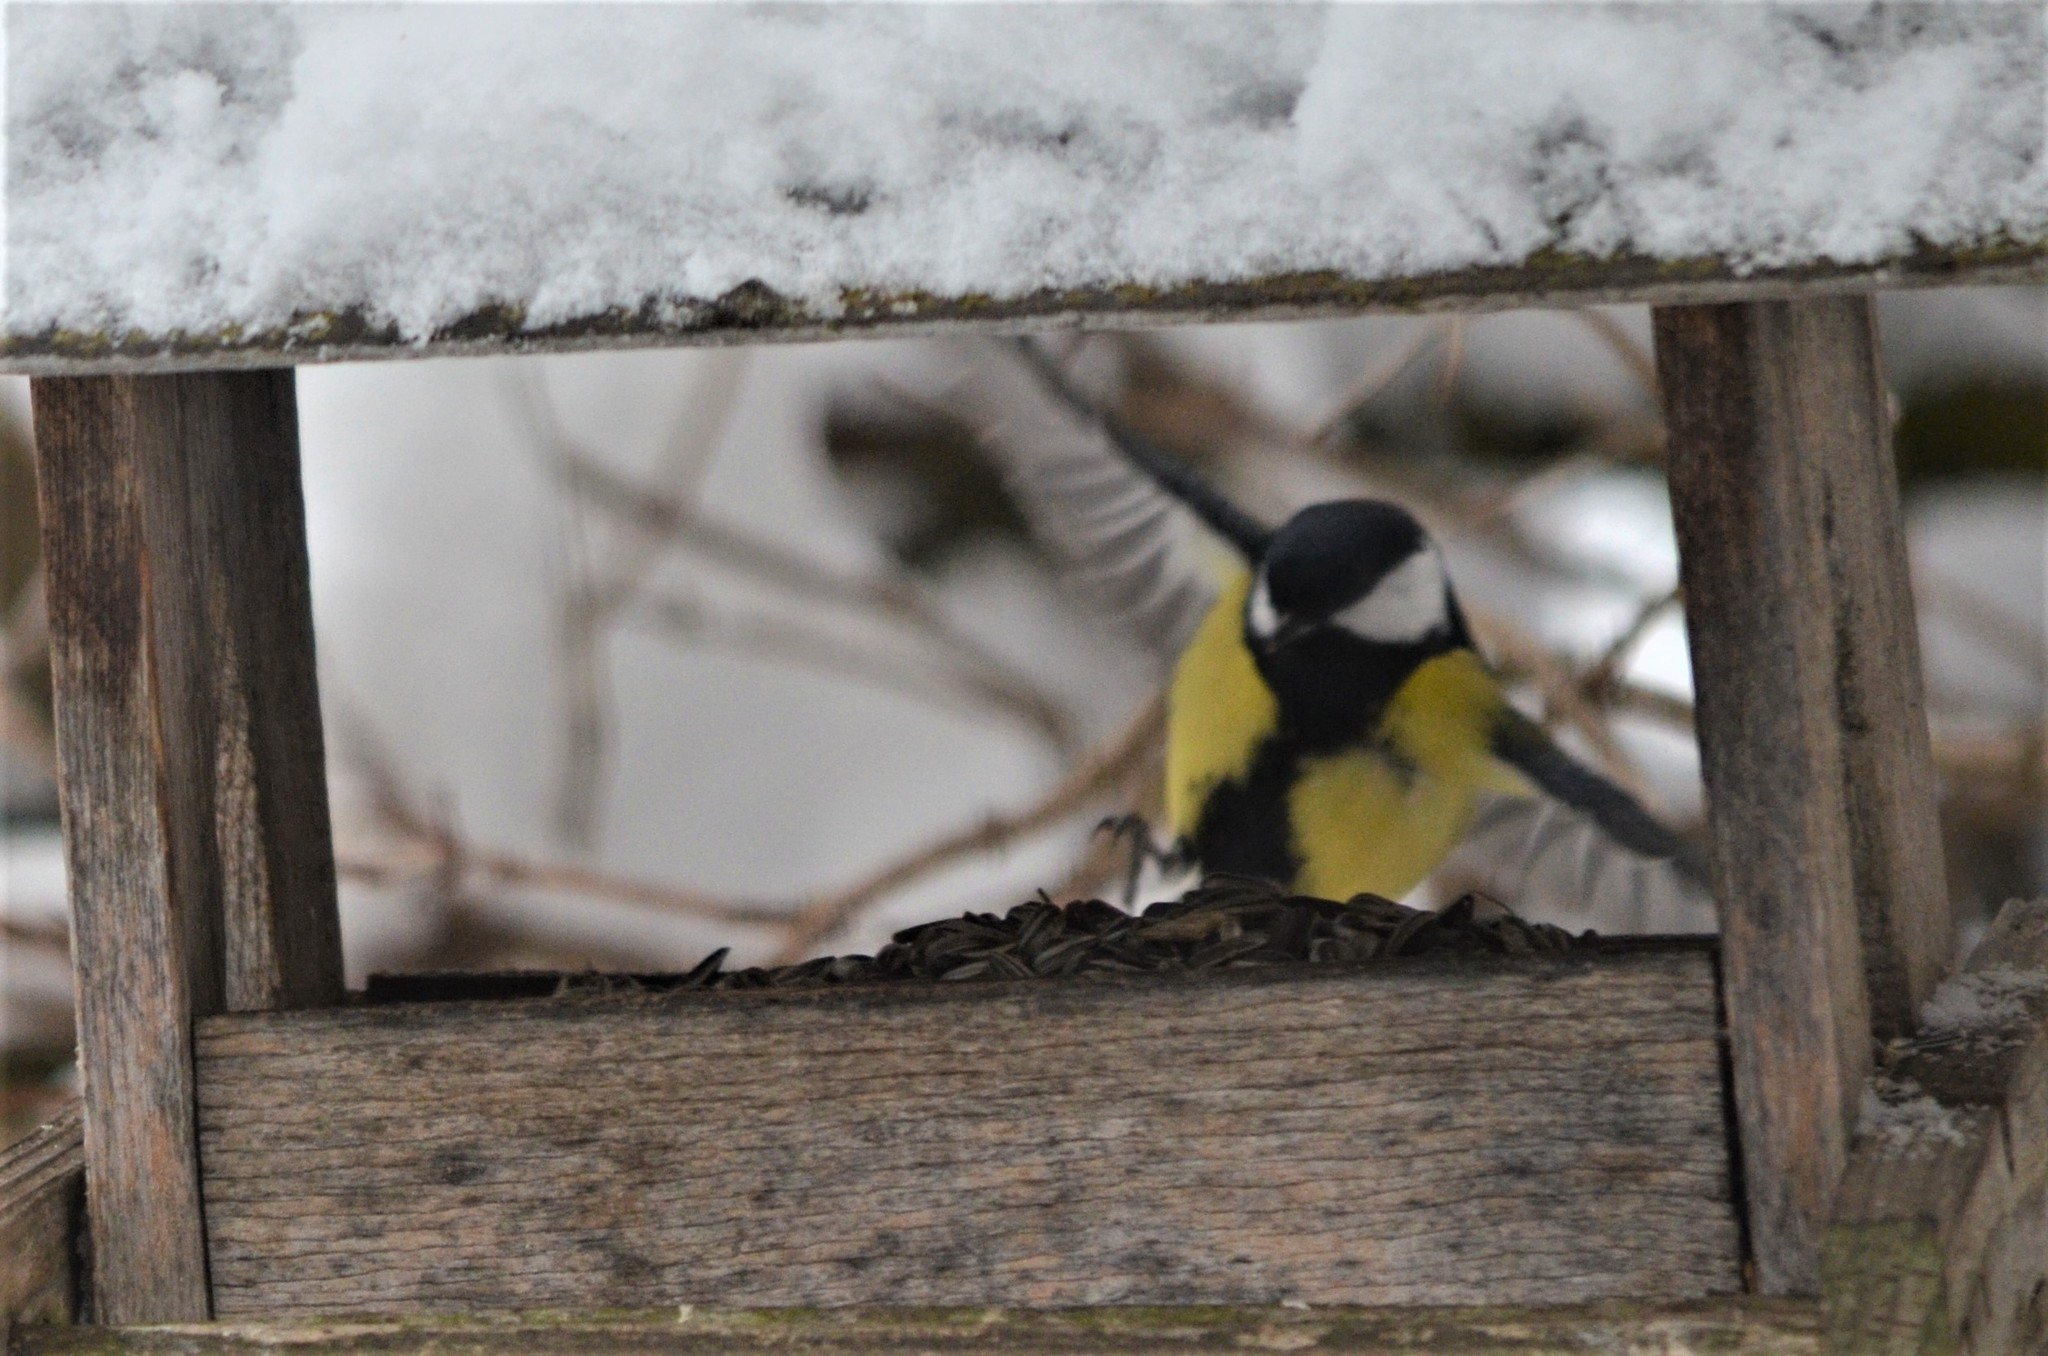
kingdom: Animalia
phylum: Chordata
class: Aves
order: Passeriformes
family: Paridae
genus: Parus
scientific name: Parus major
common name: Great tit
